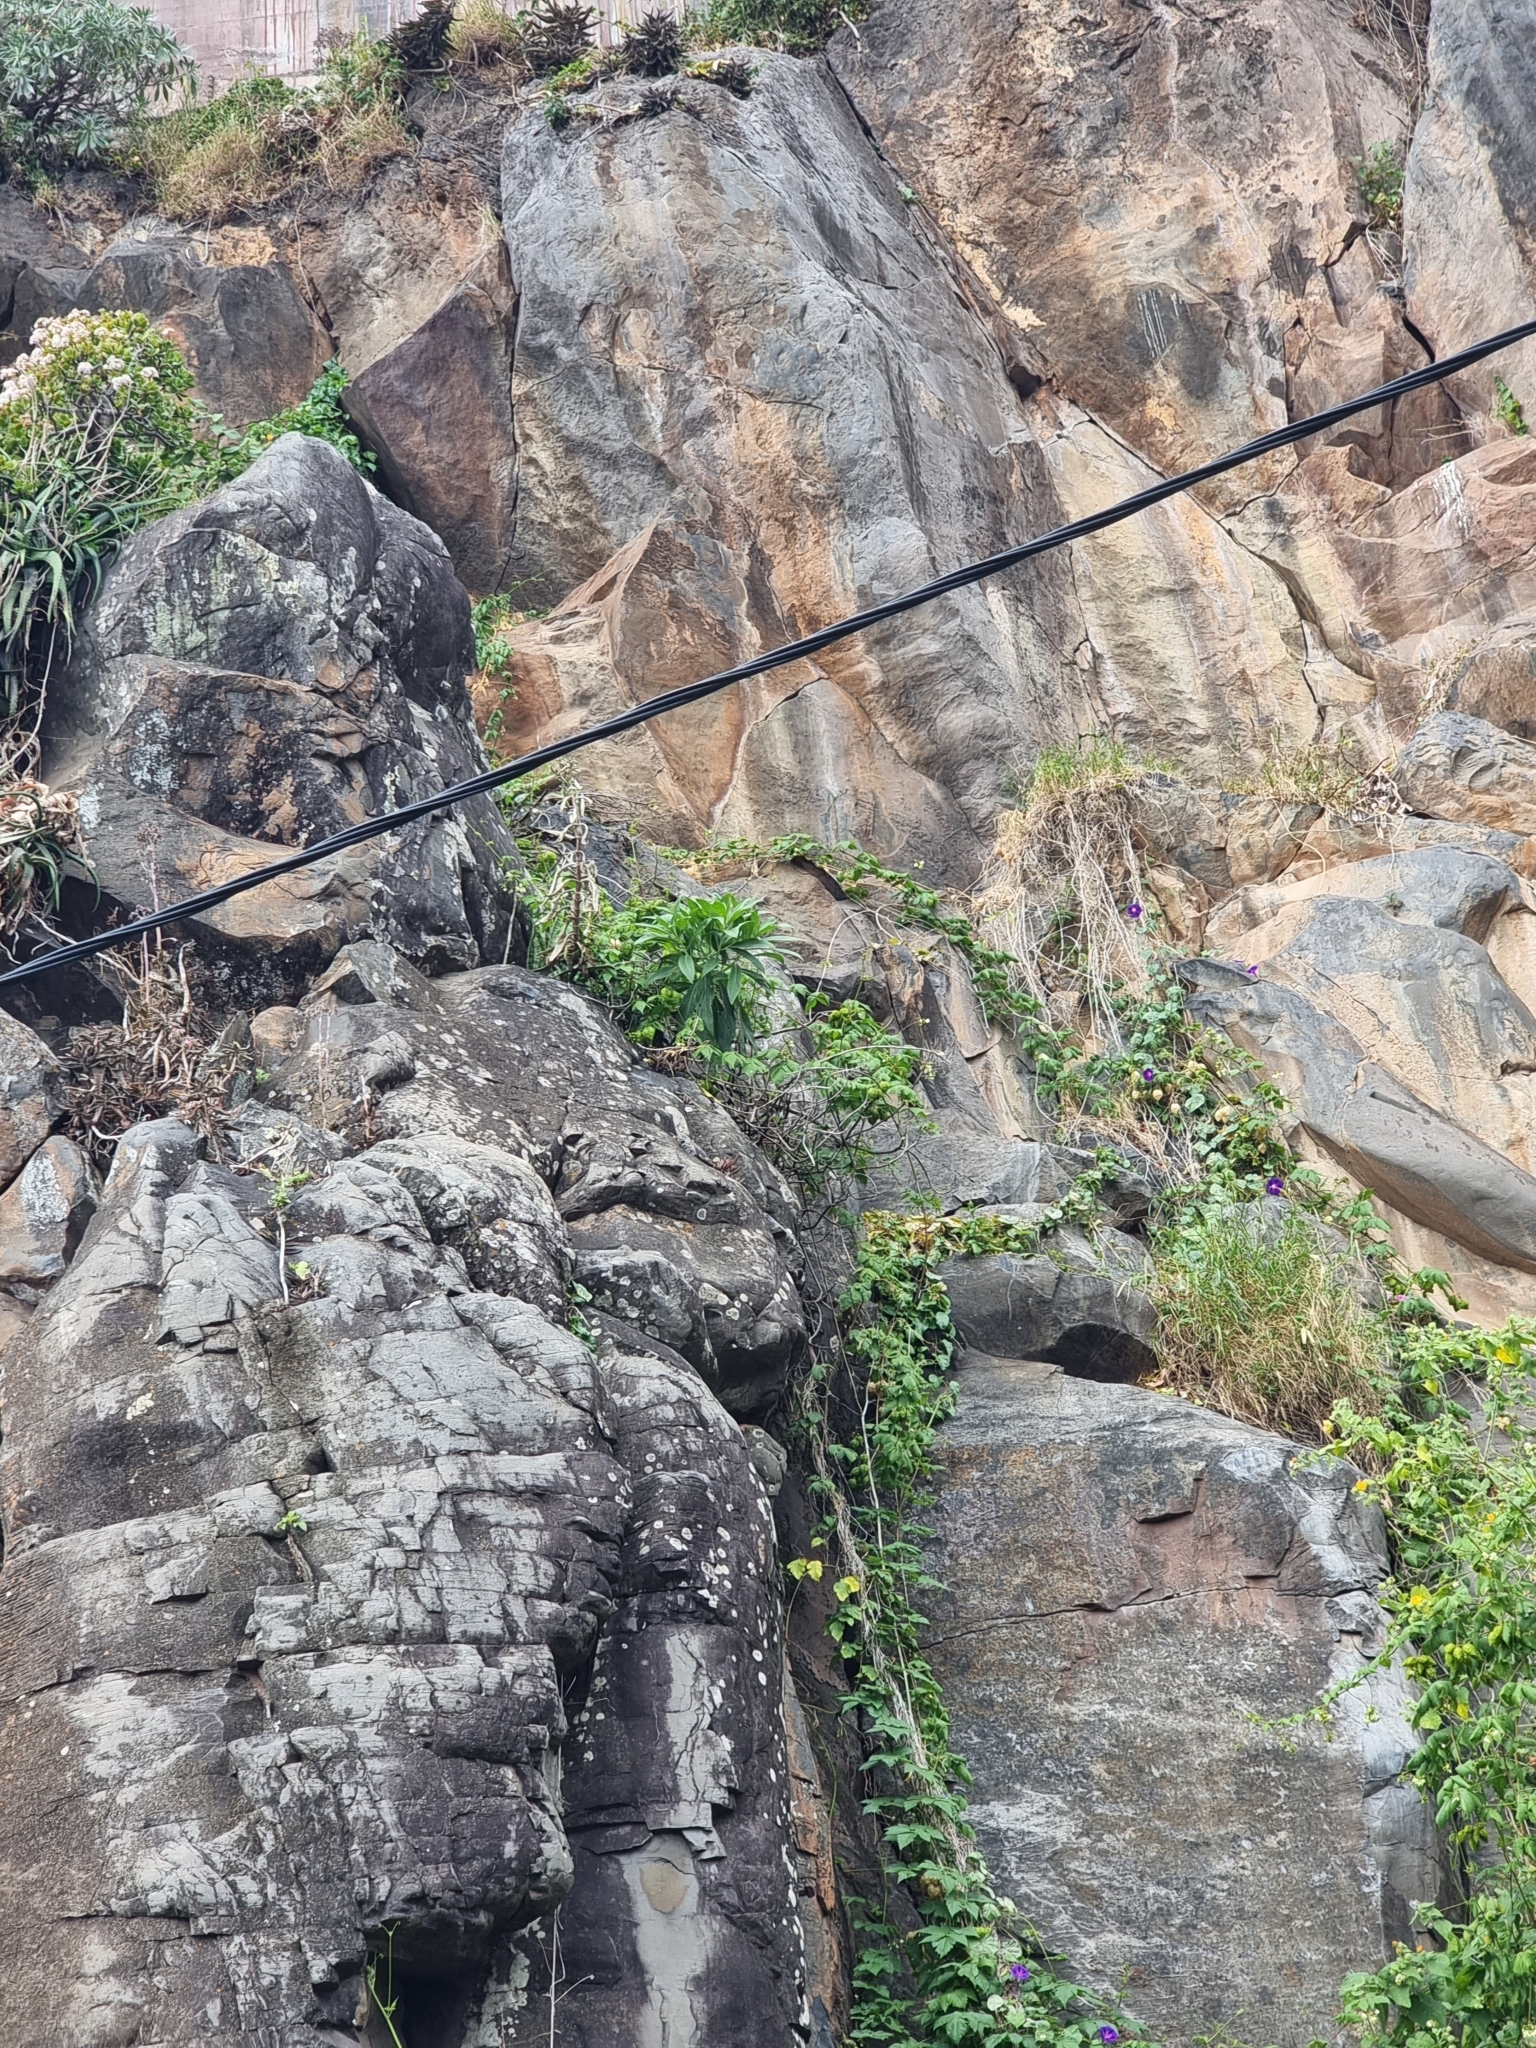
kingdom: Plantae
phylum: Tracheophyta
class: Magnoliopsida
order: Boraginales
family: Boraginaceae
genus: Echium
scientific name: Echium nervosum
